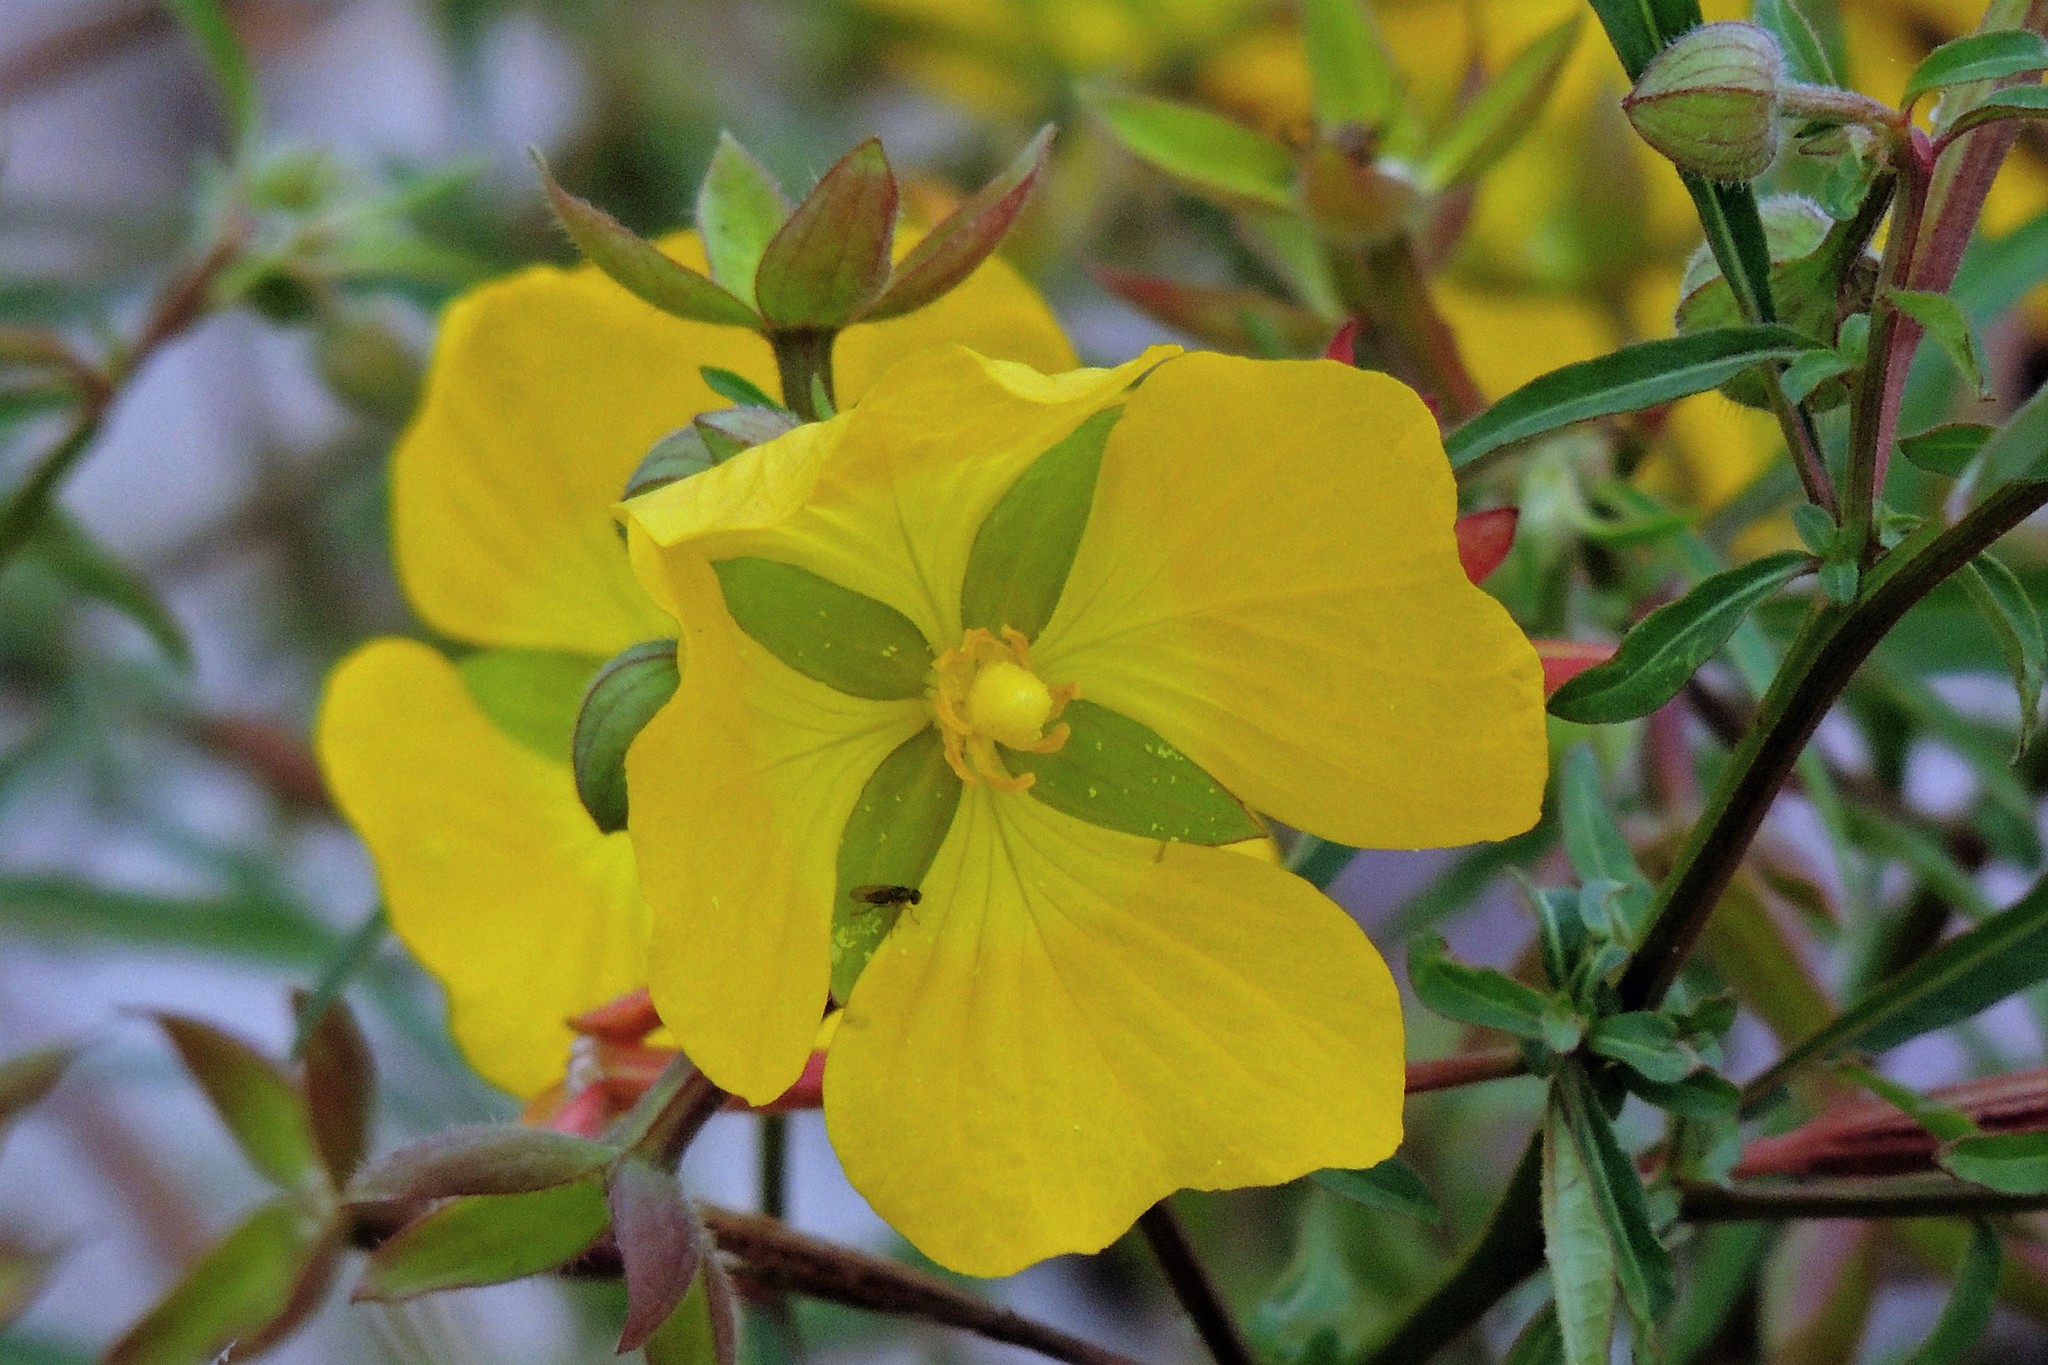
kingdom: Plantae
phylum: Tracheophyta
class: Magnoliopsida
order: Myrtales
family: Onagraceae
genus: Ludwigia
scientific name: Ludwigia bonariensis
